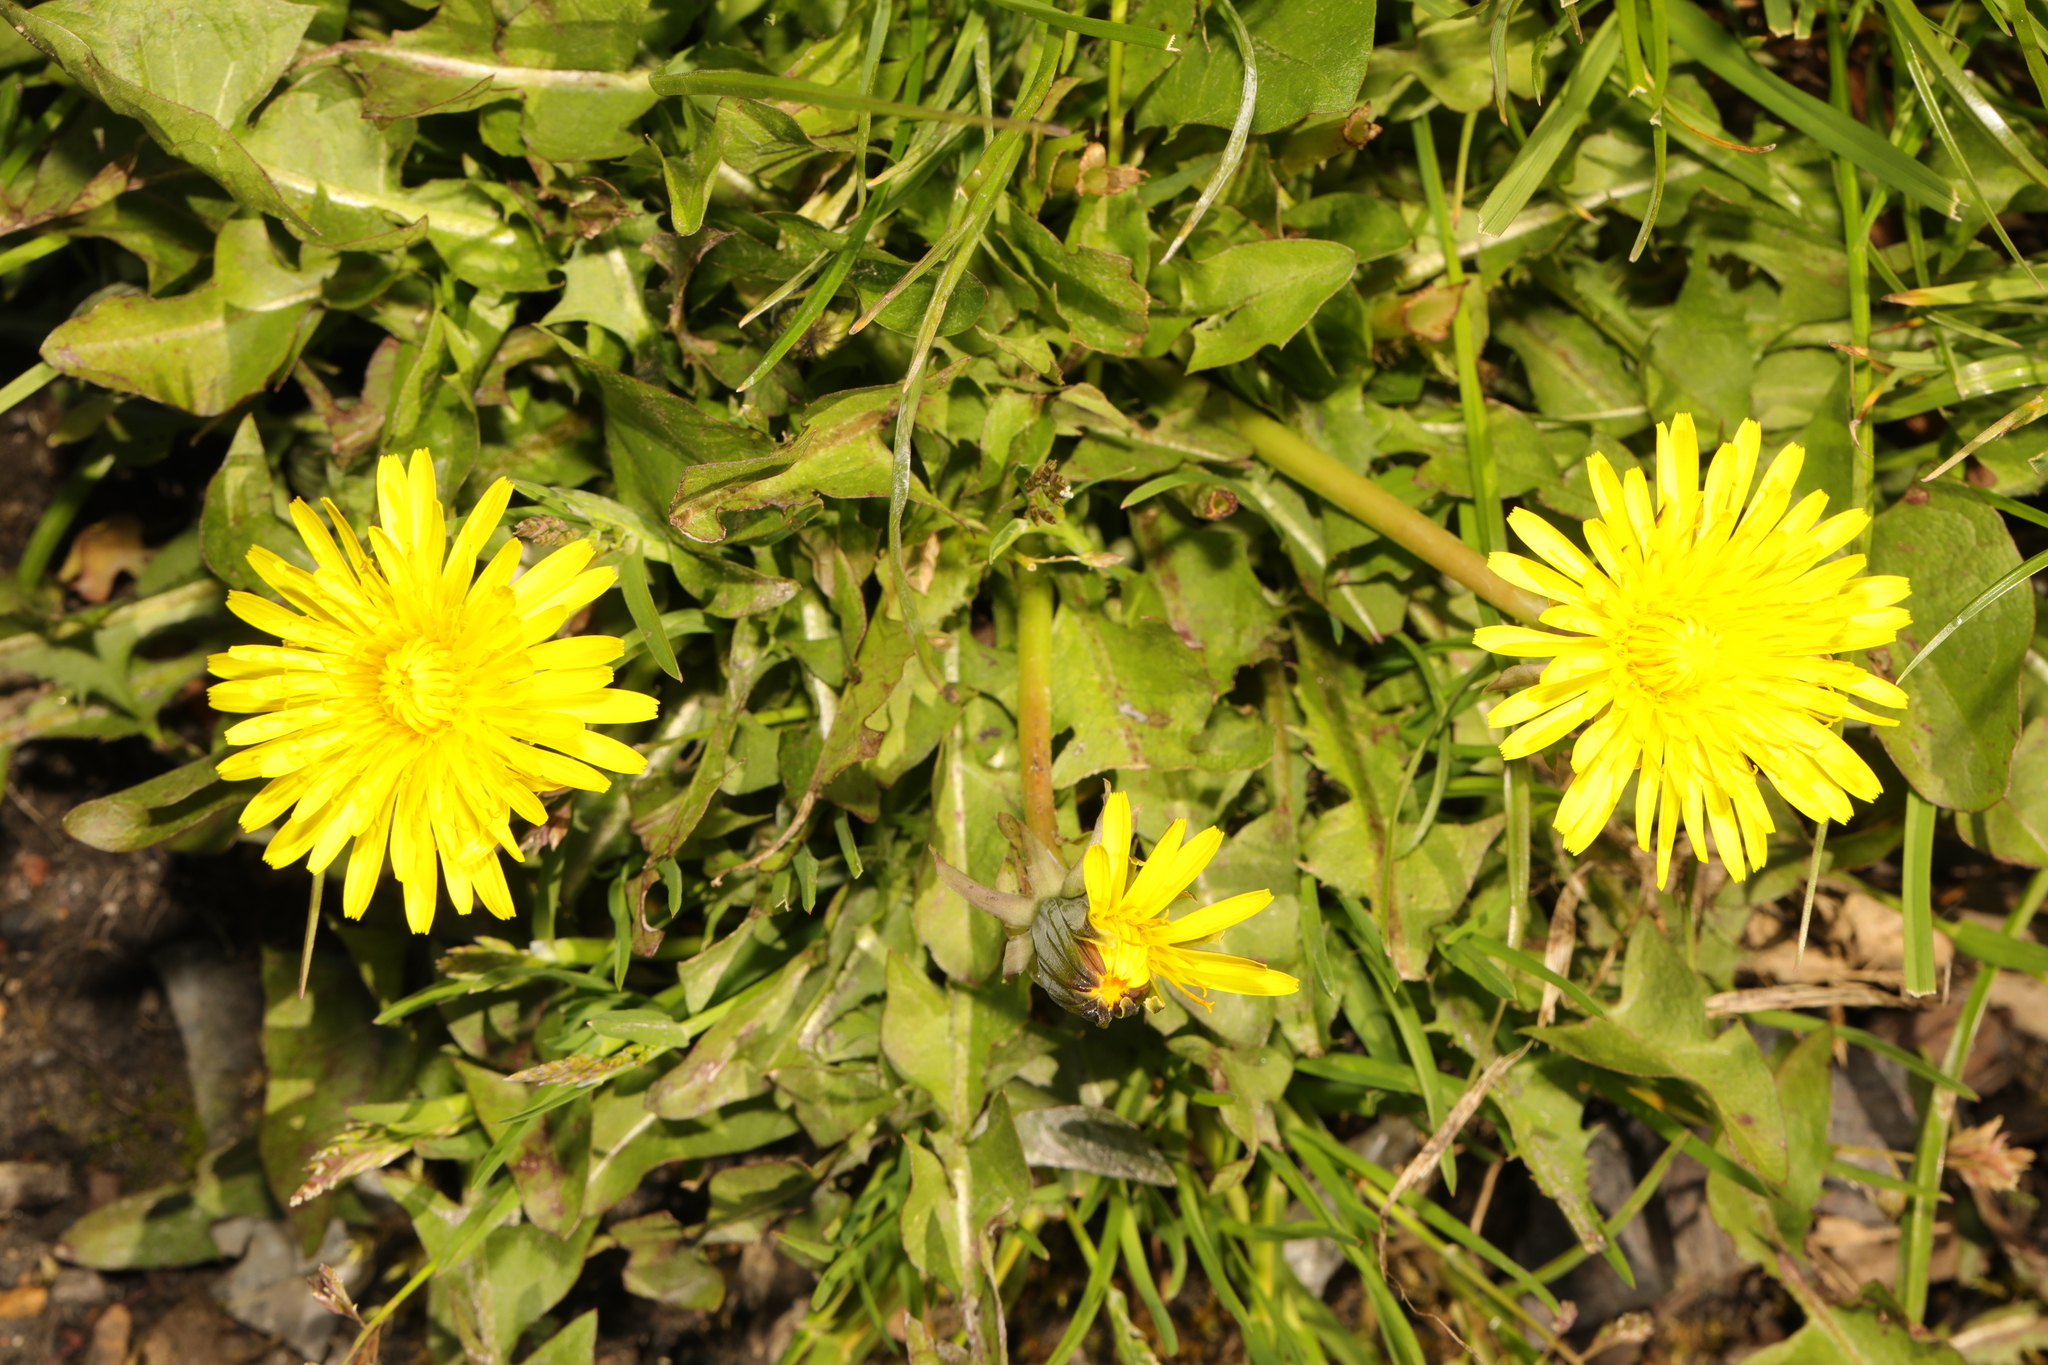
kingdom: Plantae
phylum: Tracheophyta
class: Magnoliopsida
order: Asterales
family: Asteraceae
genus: Taraxacum
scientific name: Taraxacum officinale
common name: Common dandelion
